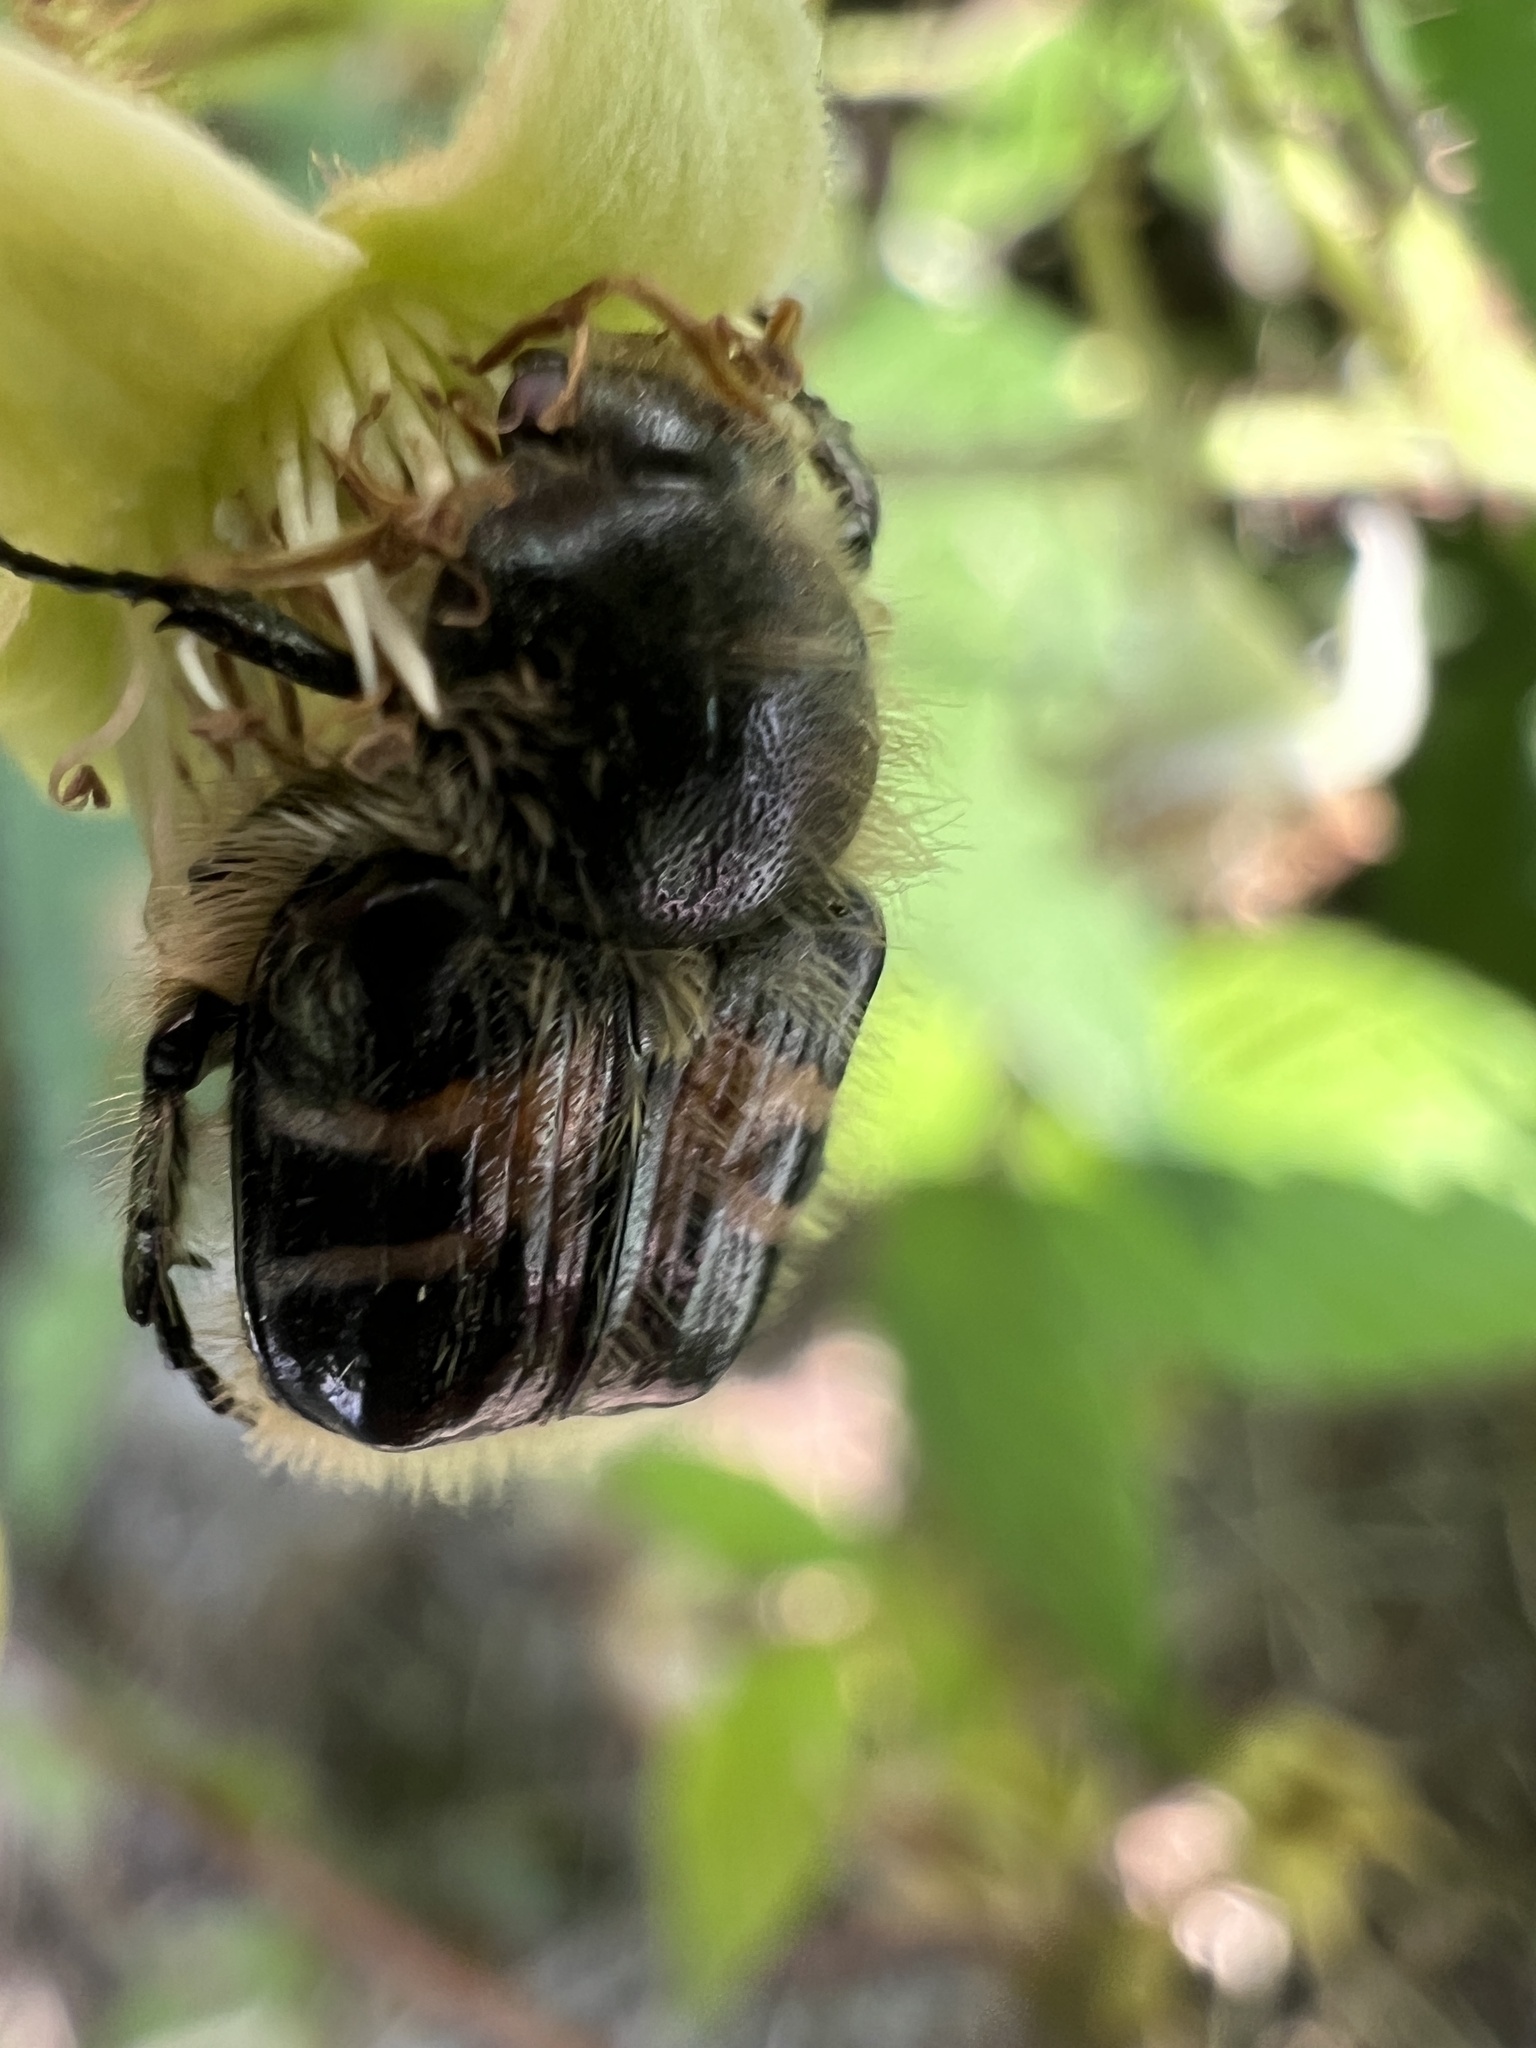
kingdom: Animalia
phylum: Arthropoda
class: Insecta
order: Coleoptera
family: Scarabaeidae
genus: Trichiotinus
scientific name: Trichiotinus assimilis
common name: Bee-mimic beetle
